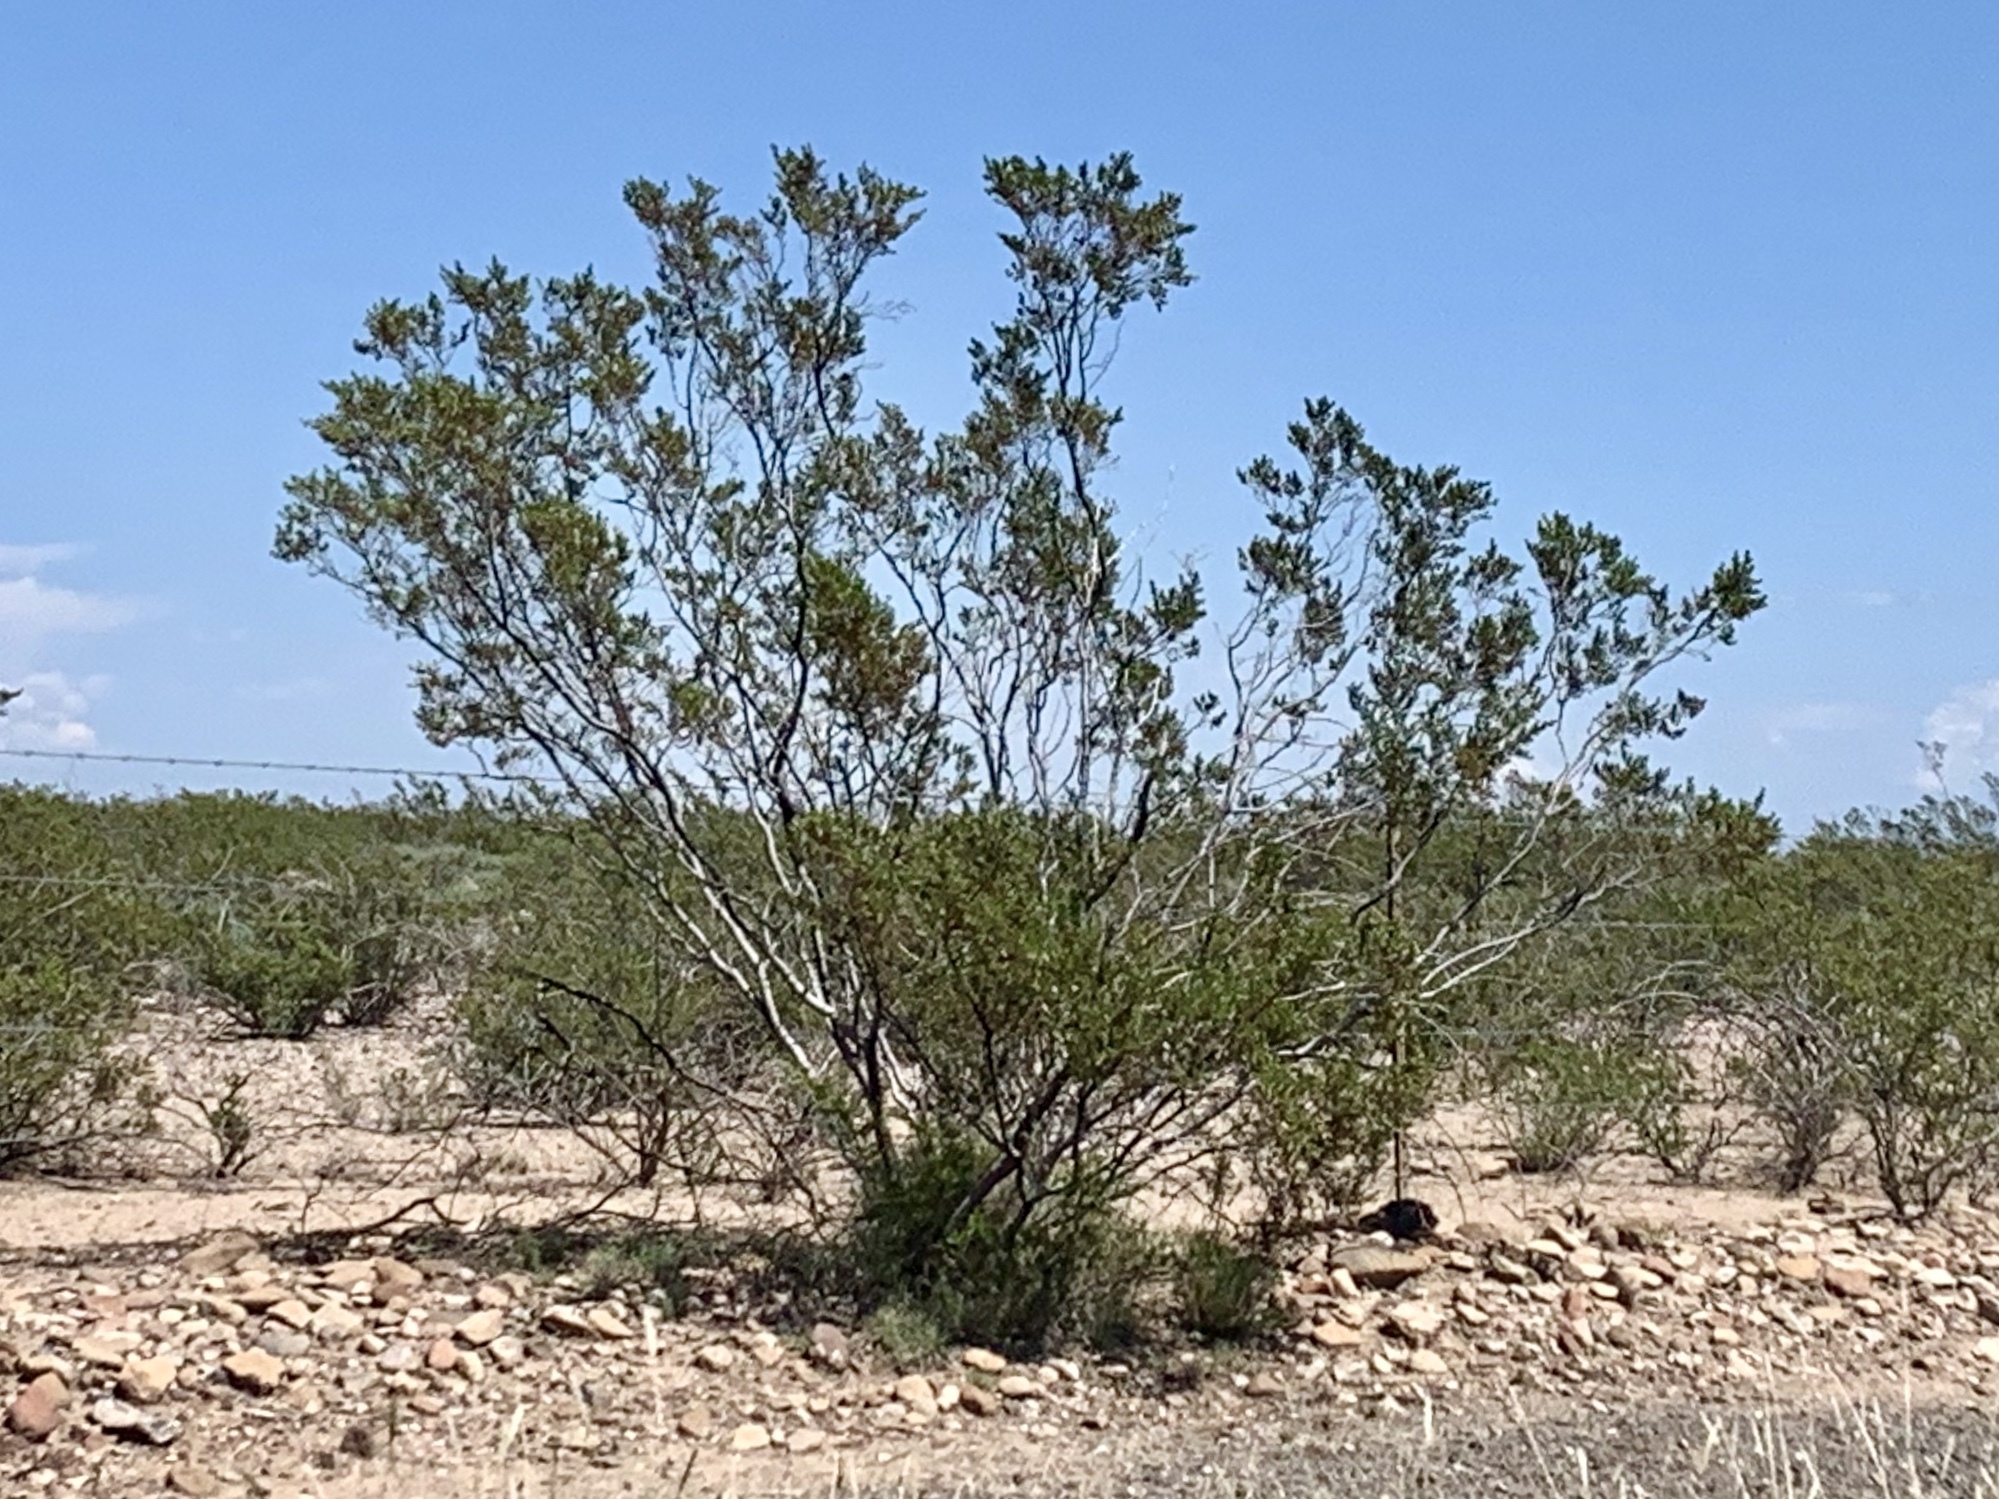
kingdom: Plantae
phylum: Tracheophyta
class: Magnoliopsida
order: Zygophyllales
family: Zygophyllaceae
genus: Larrea
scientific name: Larrea tridentata
